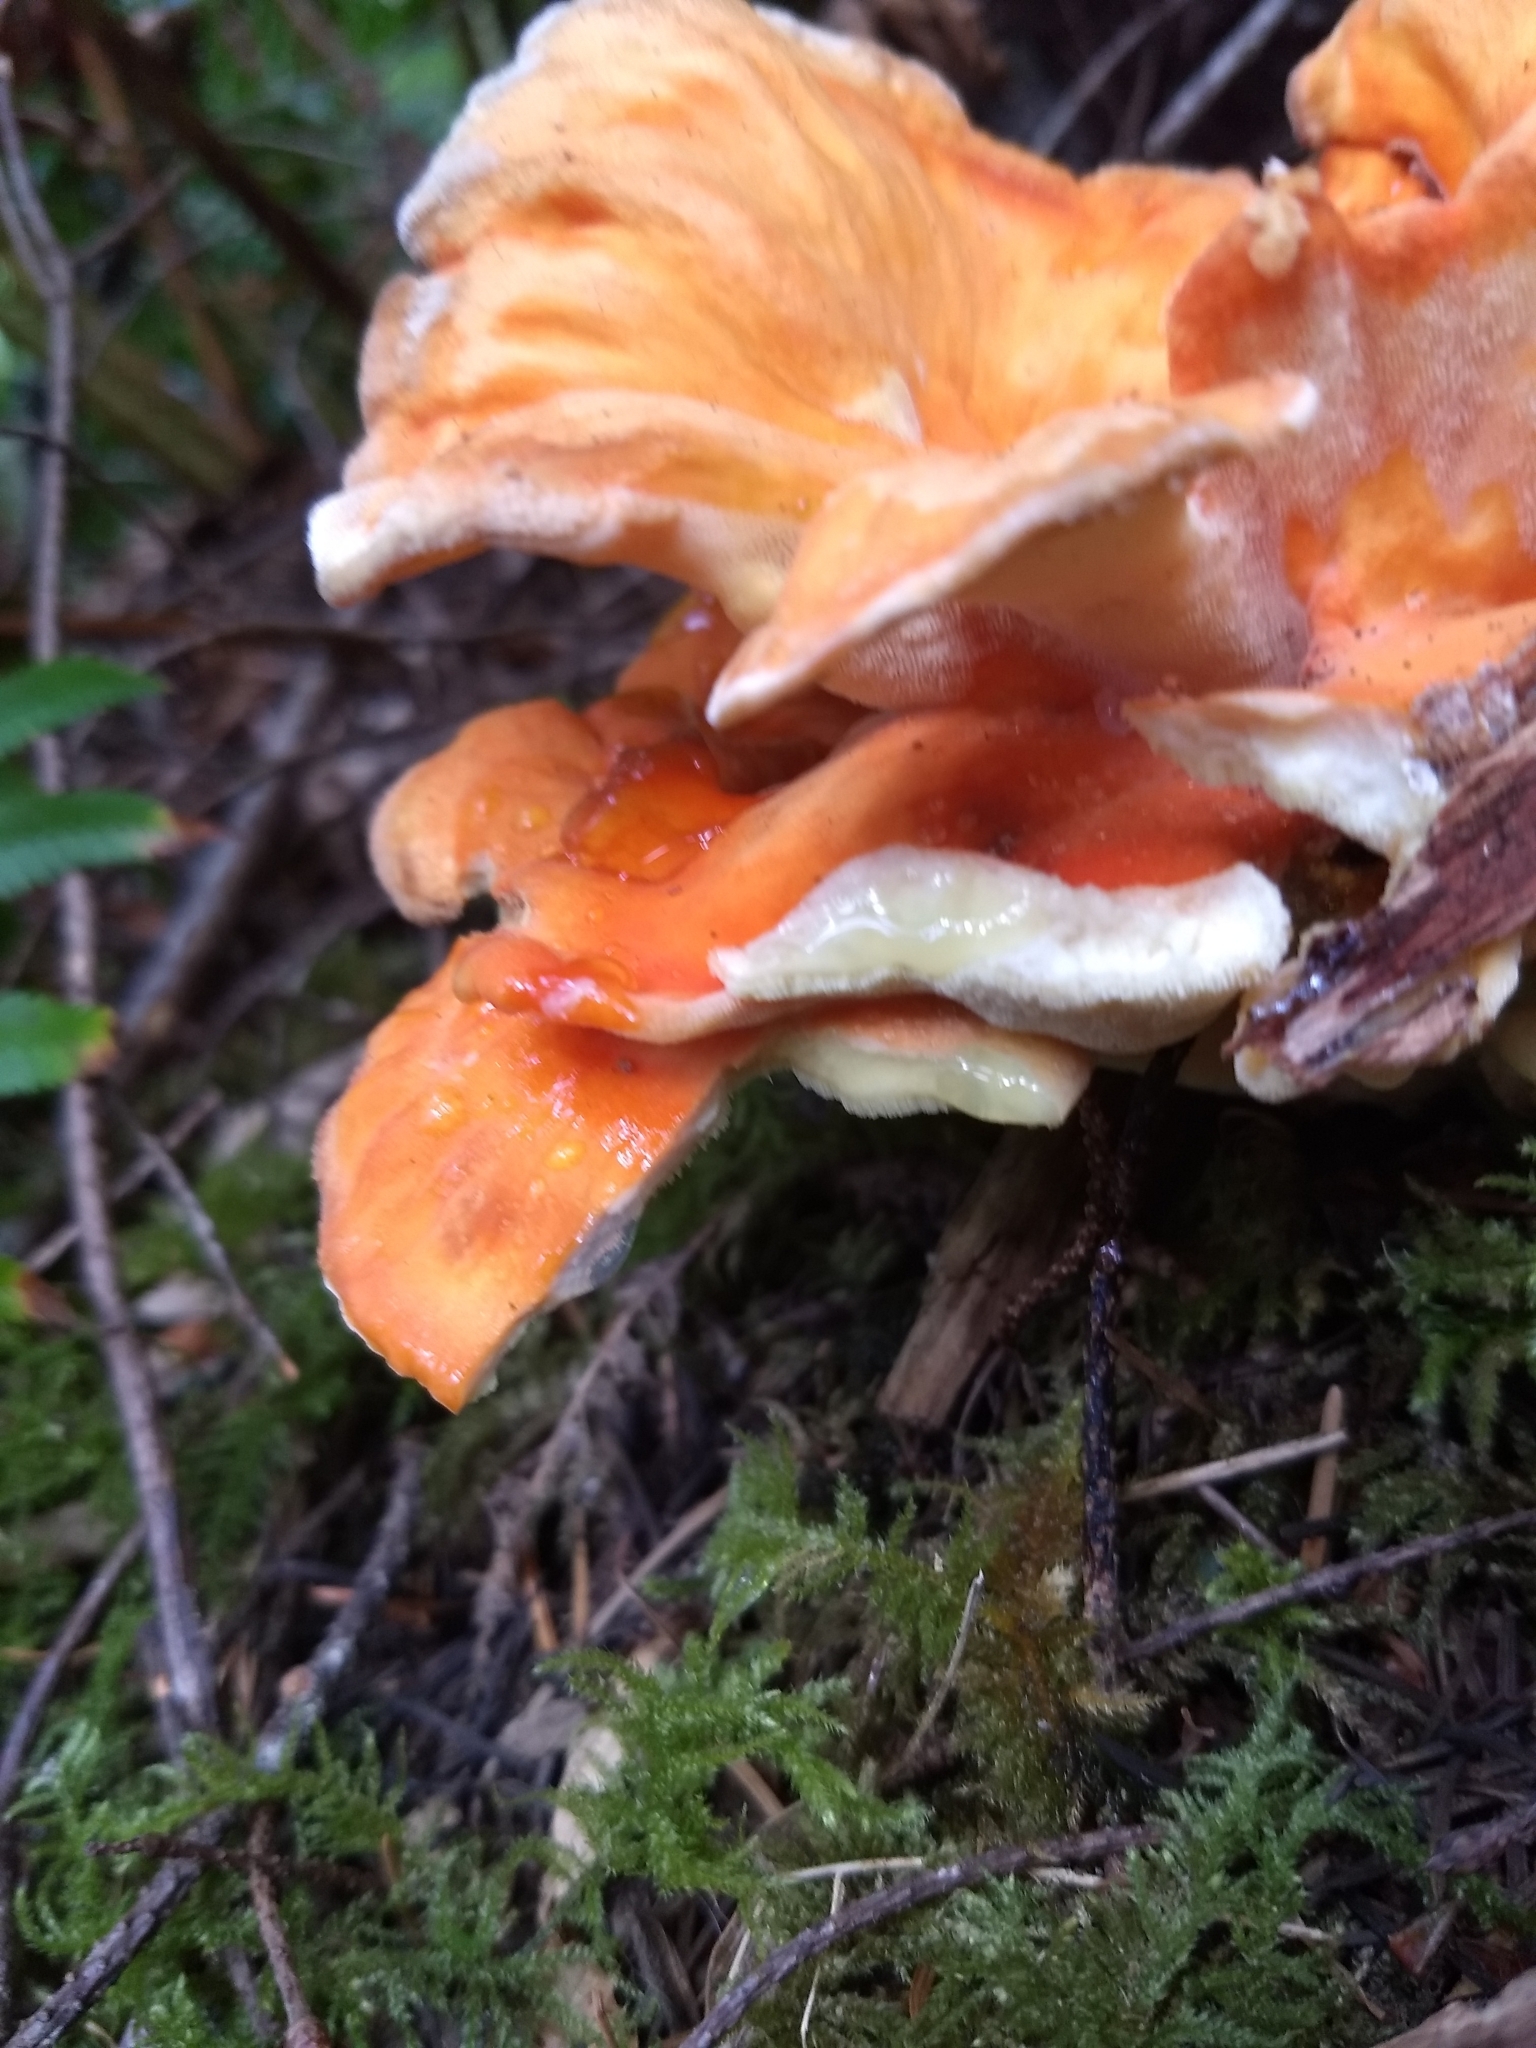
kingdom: Fungi
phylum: Basidiomycota
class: Agaricomycetes
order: Polyporales
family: Laetiporaceae
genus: Laetiporus
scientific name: Laetiporus conifericola
